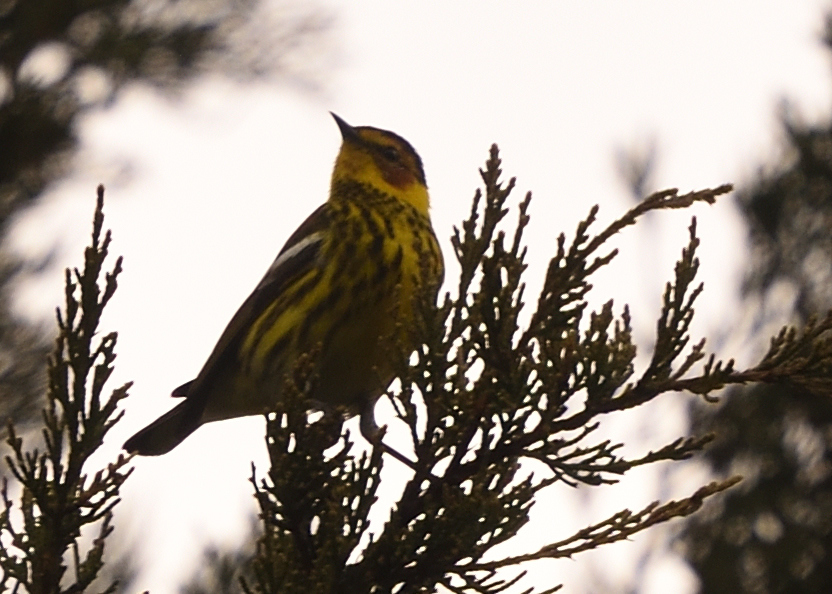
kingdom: Animalia
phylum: Chordata
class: Aves
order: Passeriformes
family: Parulidae
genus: Setophaga
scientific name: Setophaga tigrina
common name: Cape may warbler
